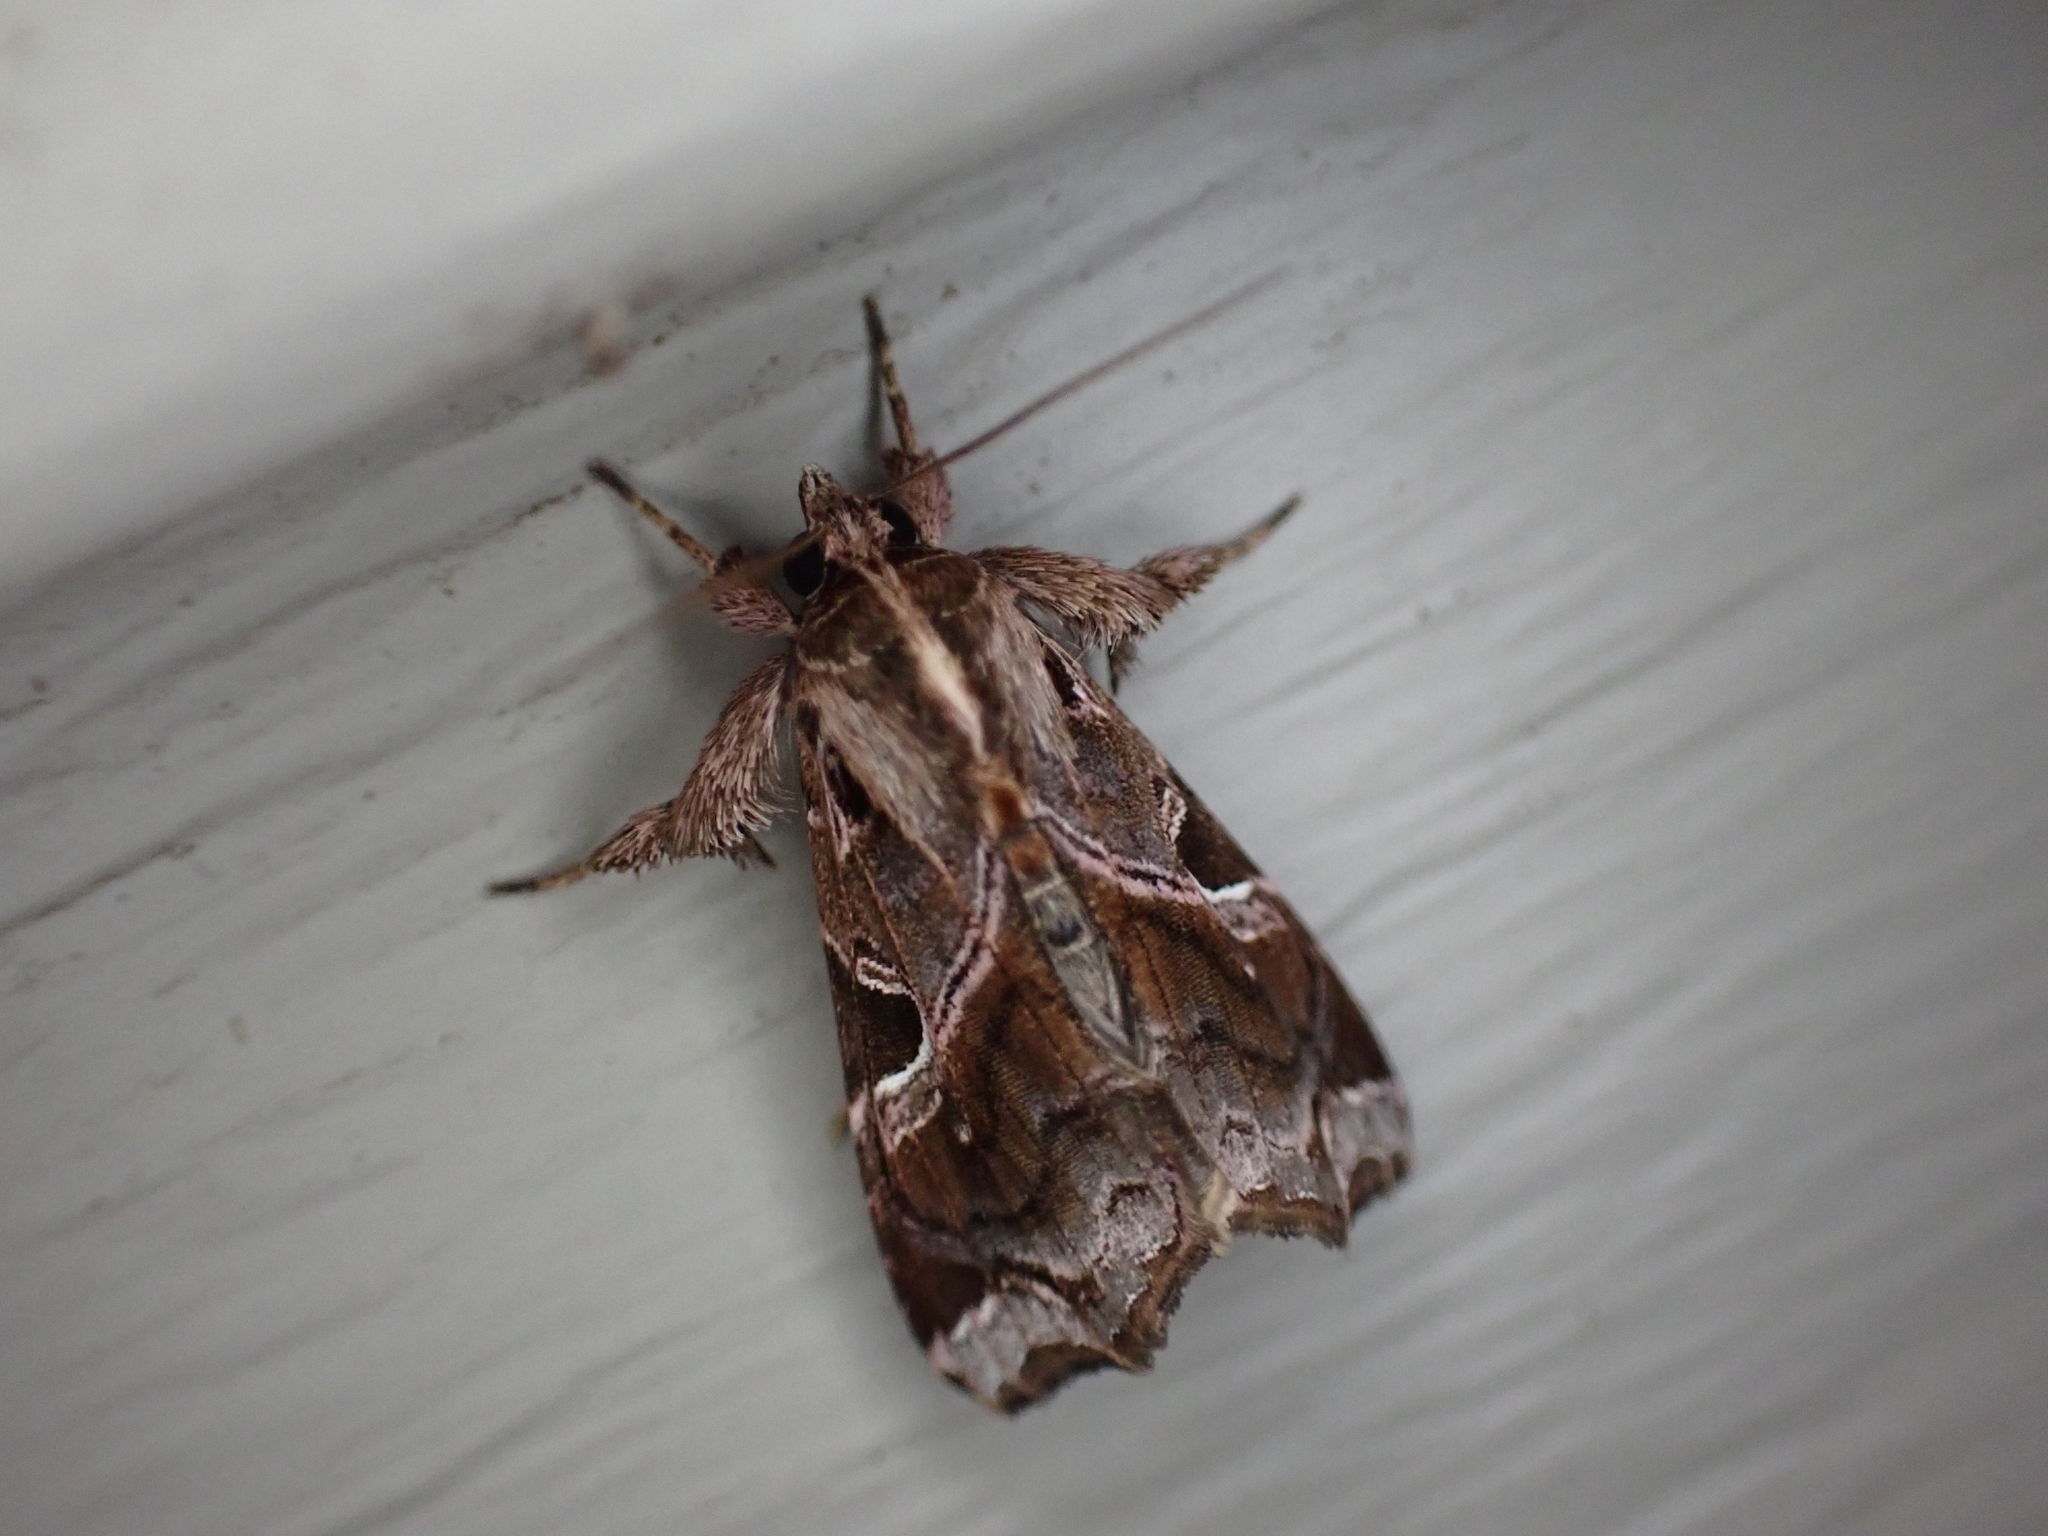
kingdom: Animalia
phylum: Arthropoda
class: Insecta
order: Lepidoptera
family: Noctuidae
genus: Callopistria
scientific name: Callopistria floridensis
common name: Florida fern moth
